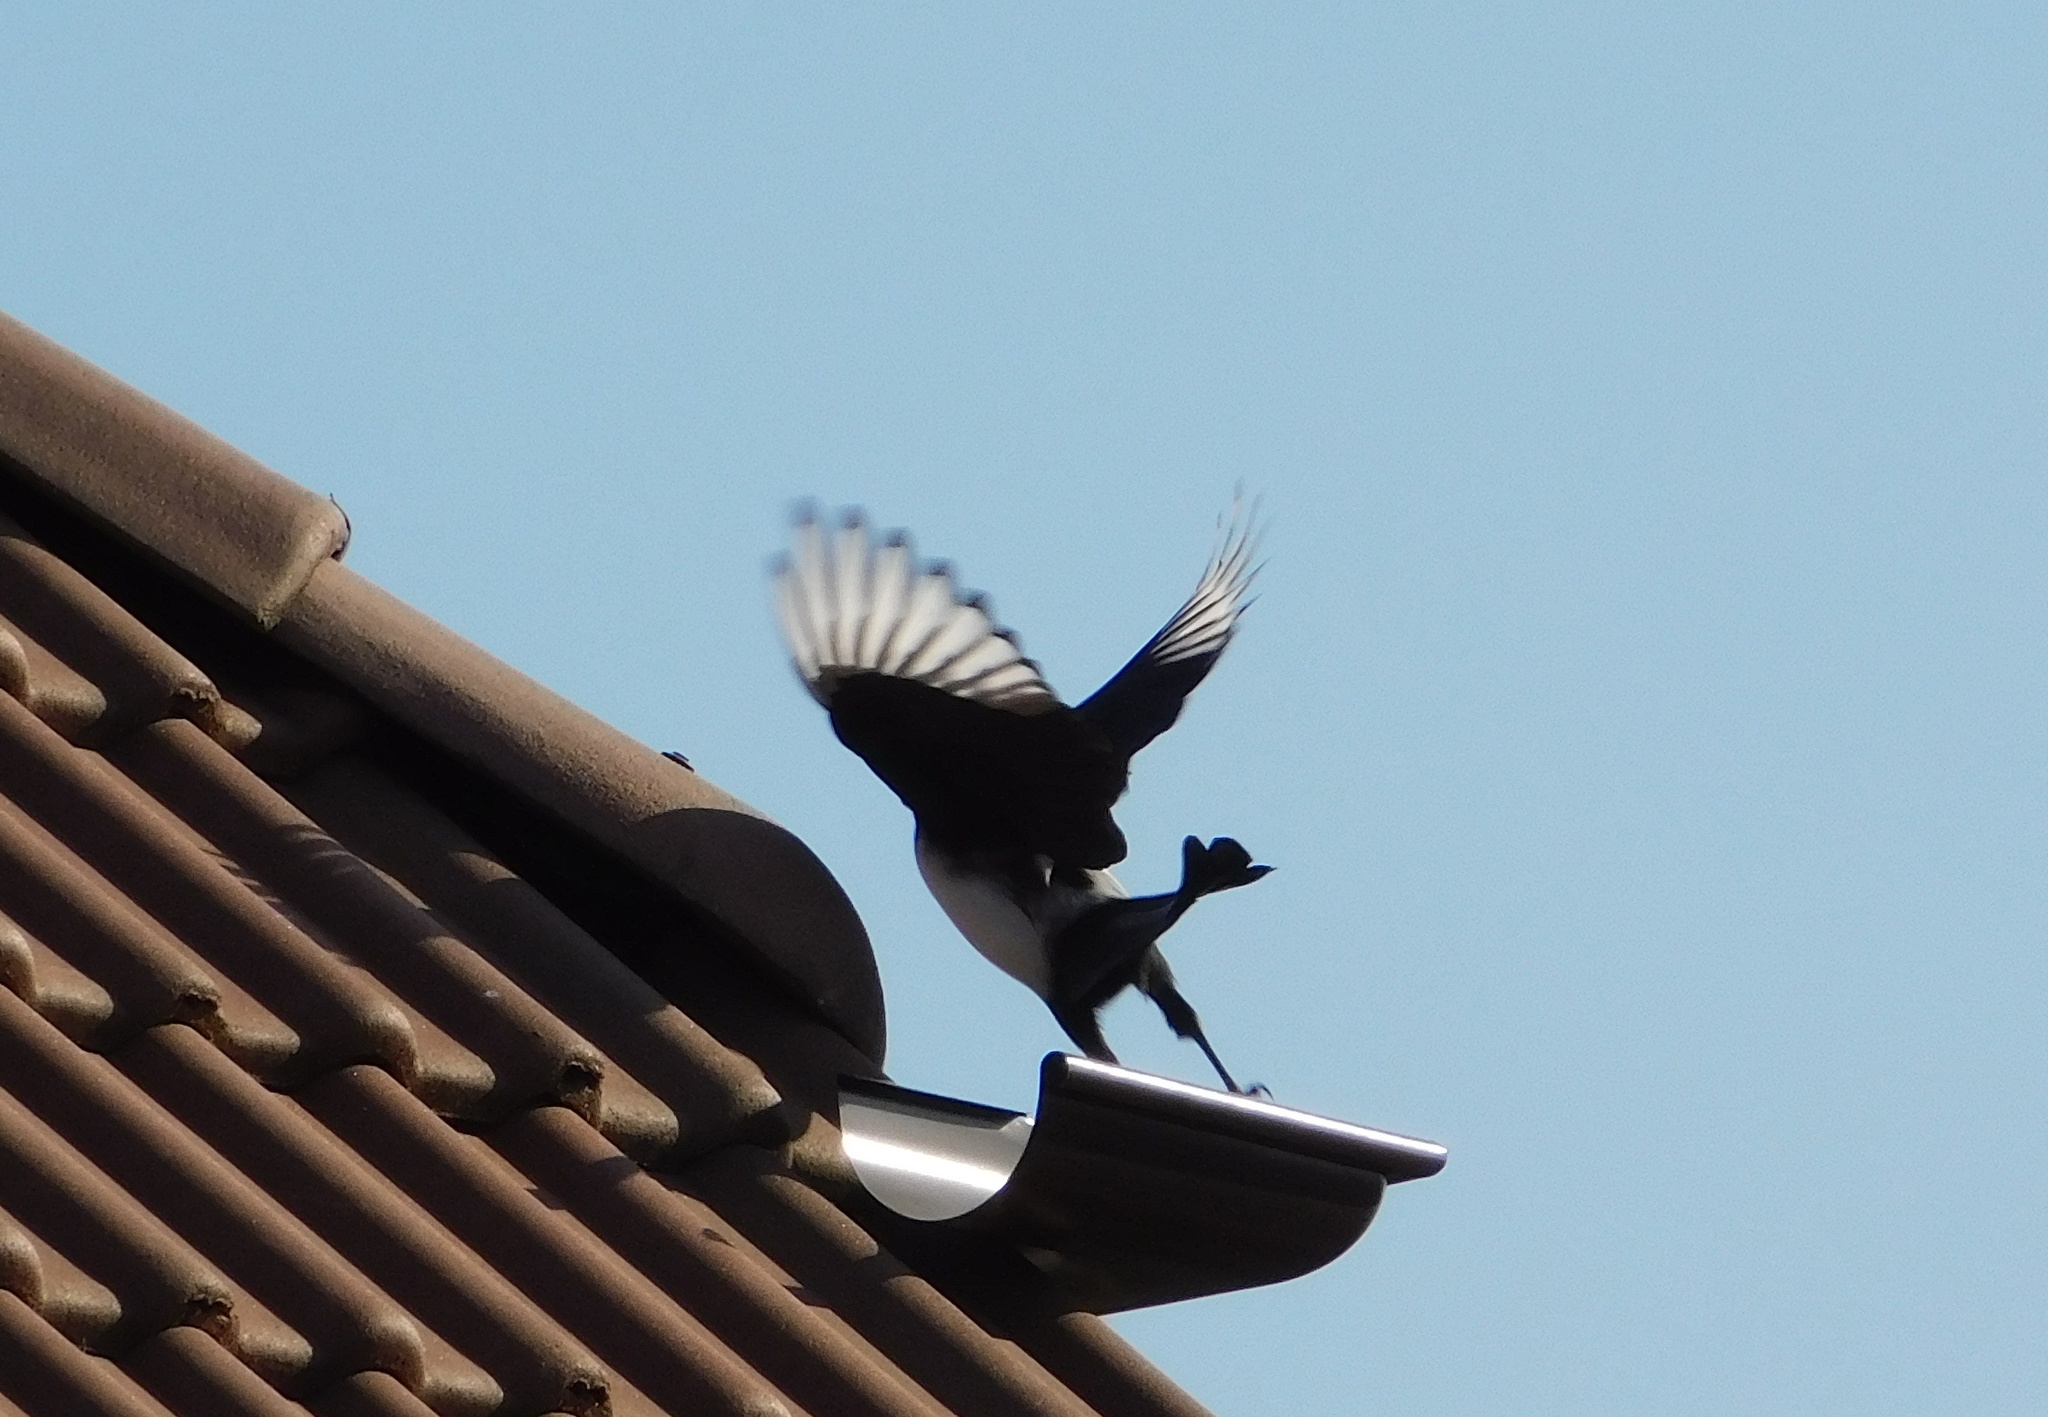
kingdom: Animalia
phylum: Chordata
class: Aves
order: Passeriformes
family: Corvidae
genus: Pica
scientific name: Pica pica
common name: Eurasian magpie
